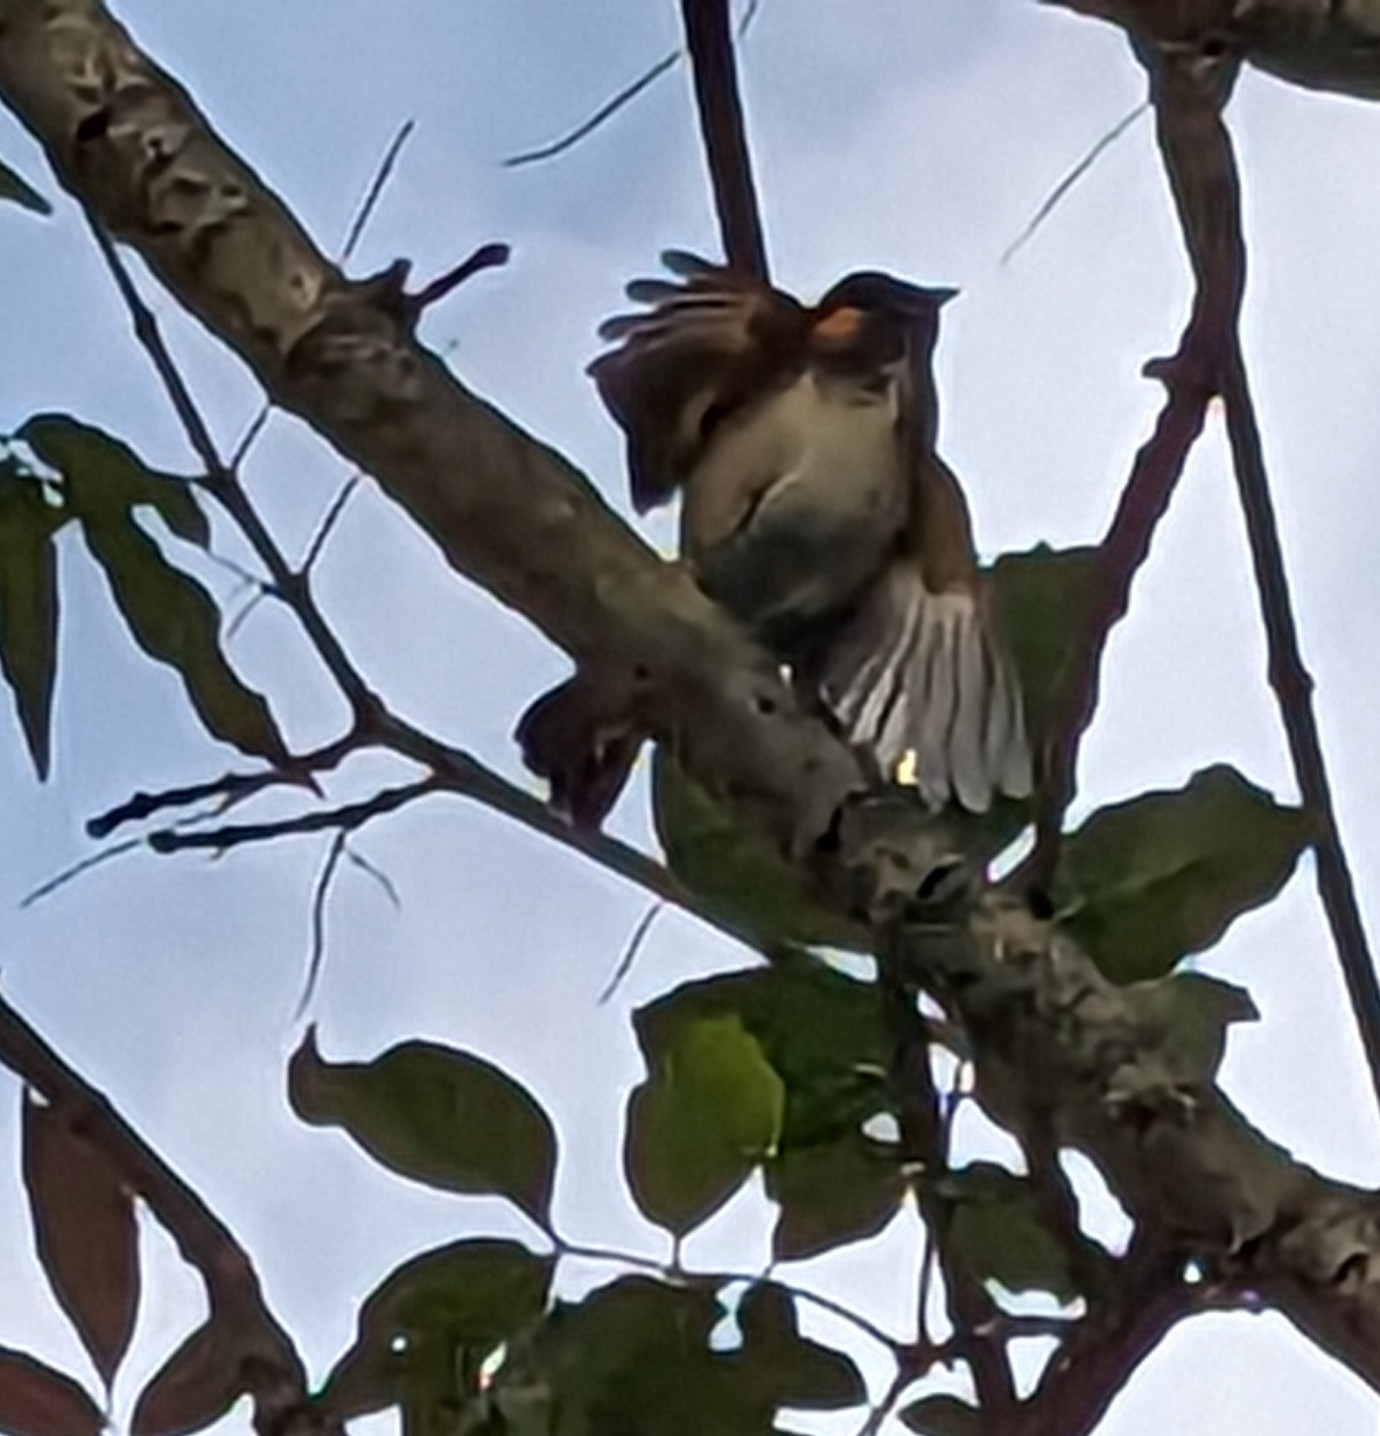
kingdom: Animalia
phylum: Chordata
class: Aves
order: Passeriformes
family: Parulidae
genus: Setophaga
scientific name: Setophaga ruticilla
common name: American redstart
